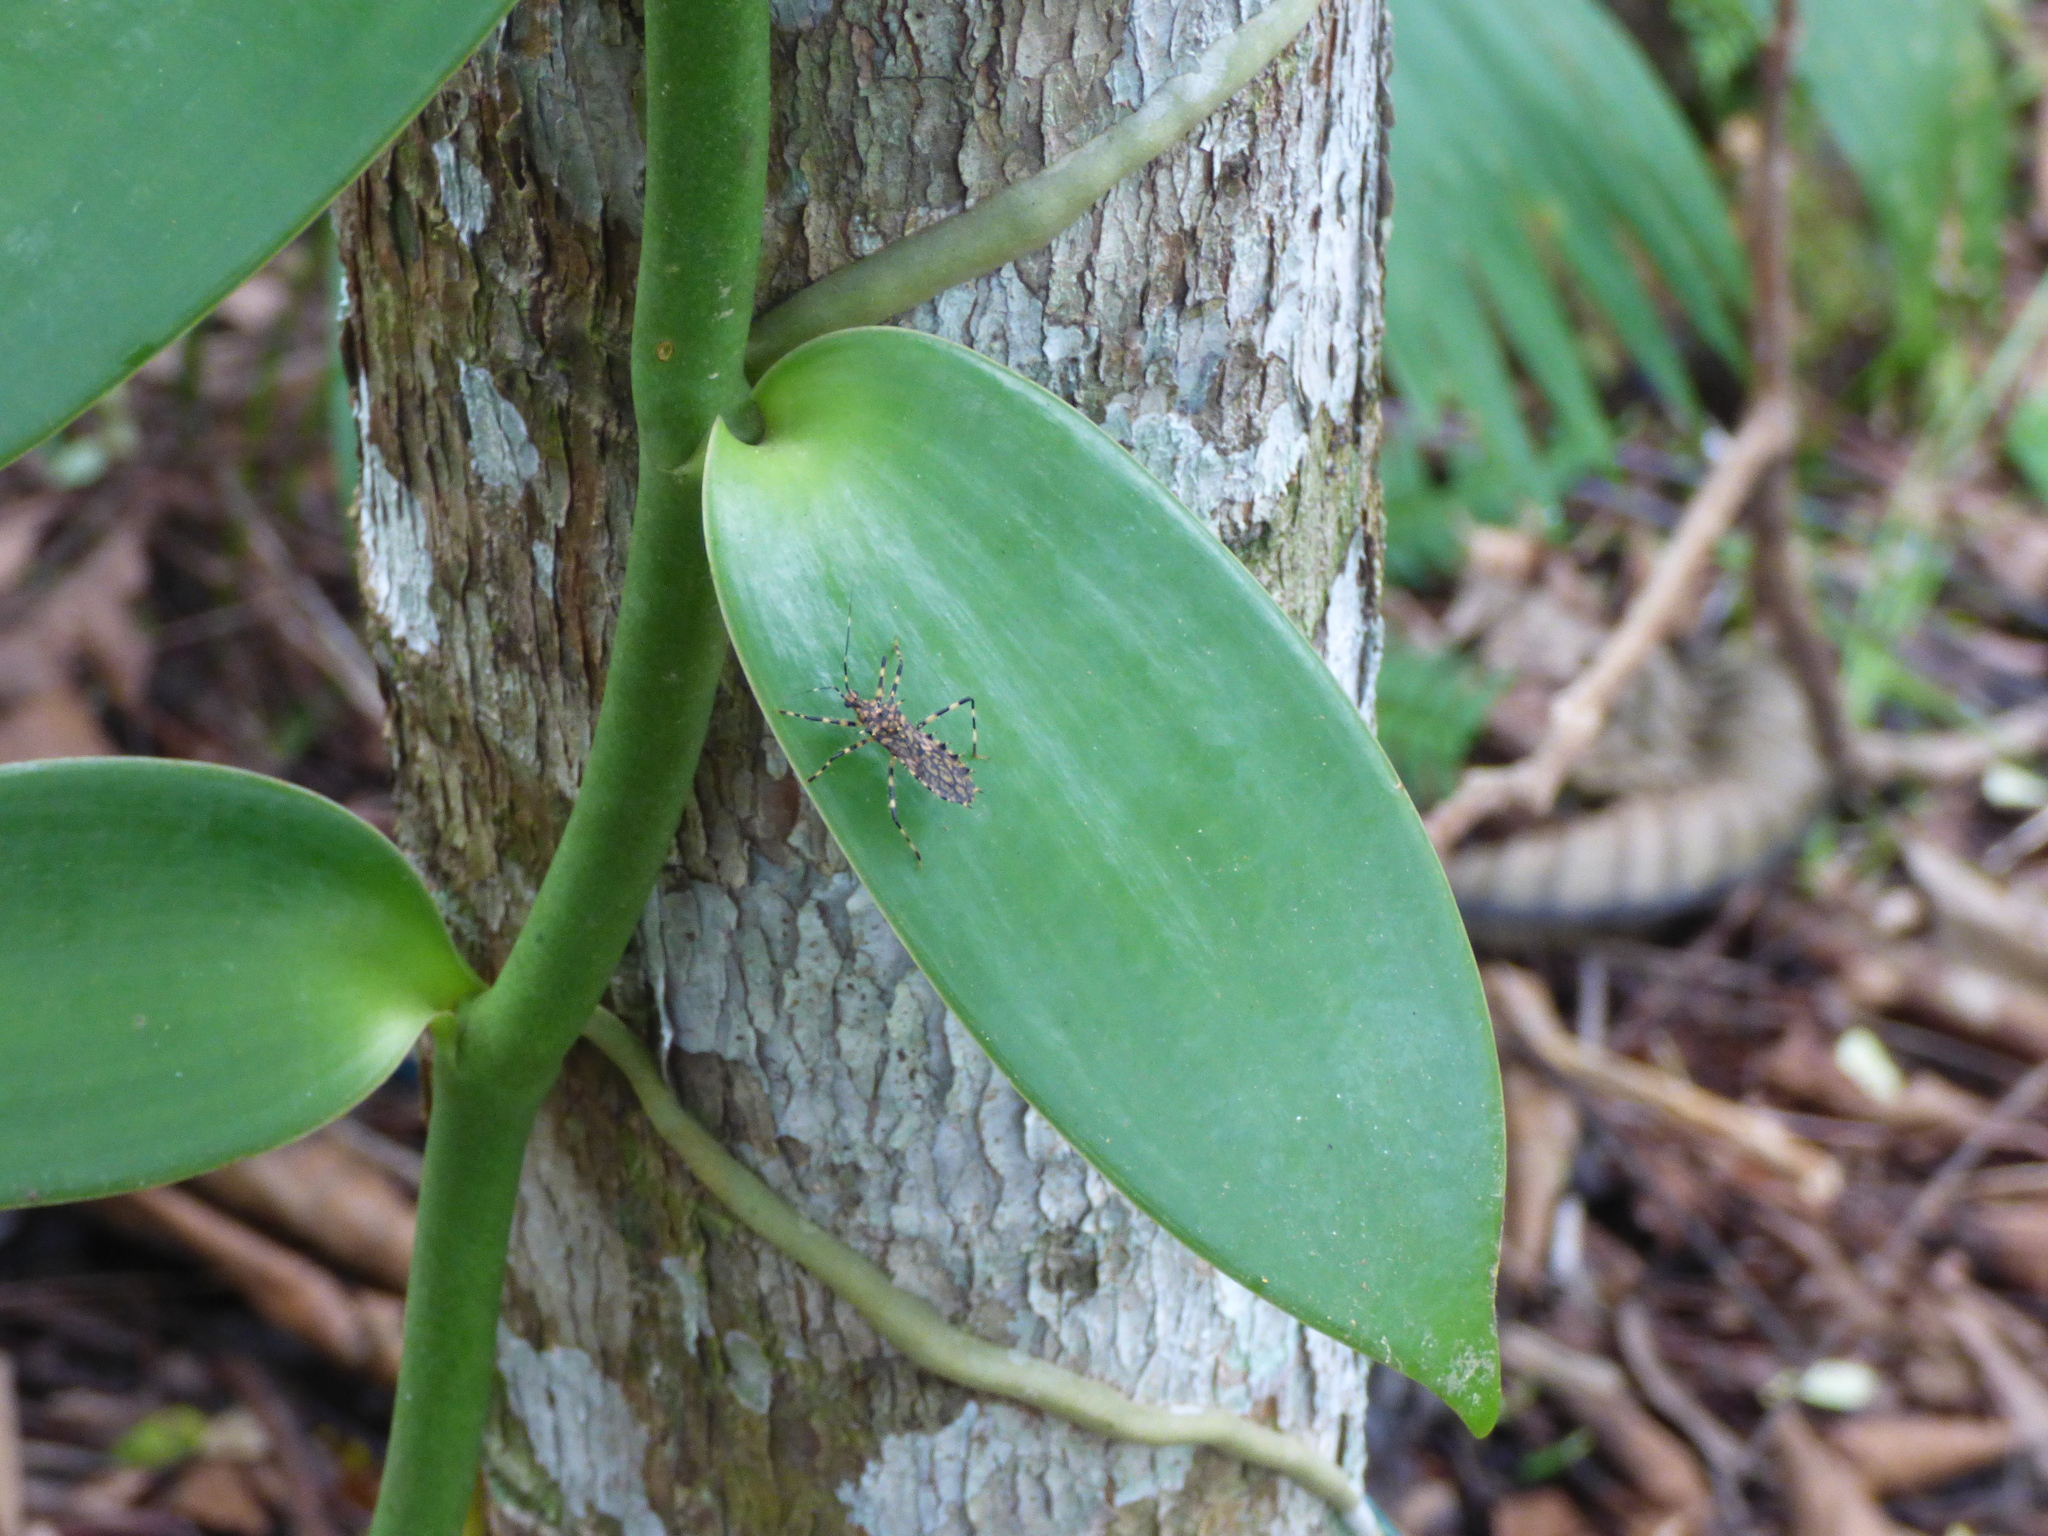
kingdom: Animalia
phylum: Arthropoda
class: Insecta
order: Hemiptera
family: Reduviidae
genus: Salyavata
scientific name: Salyavata englemani
